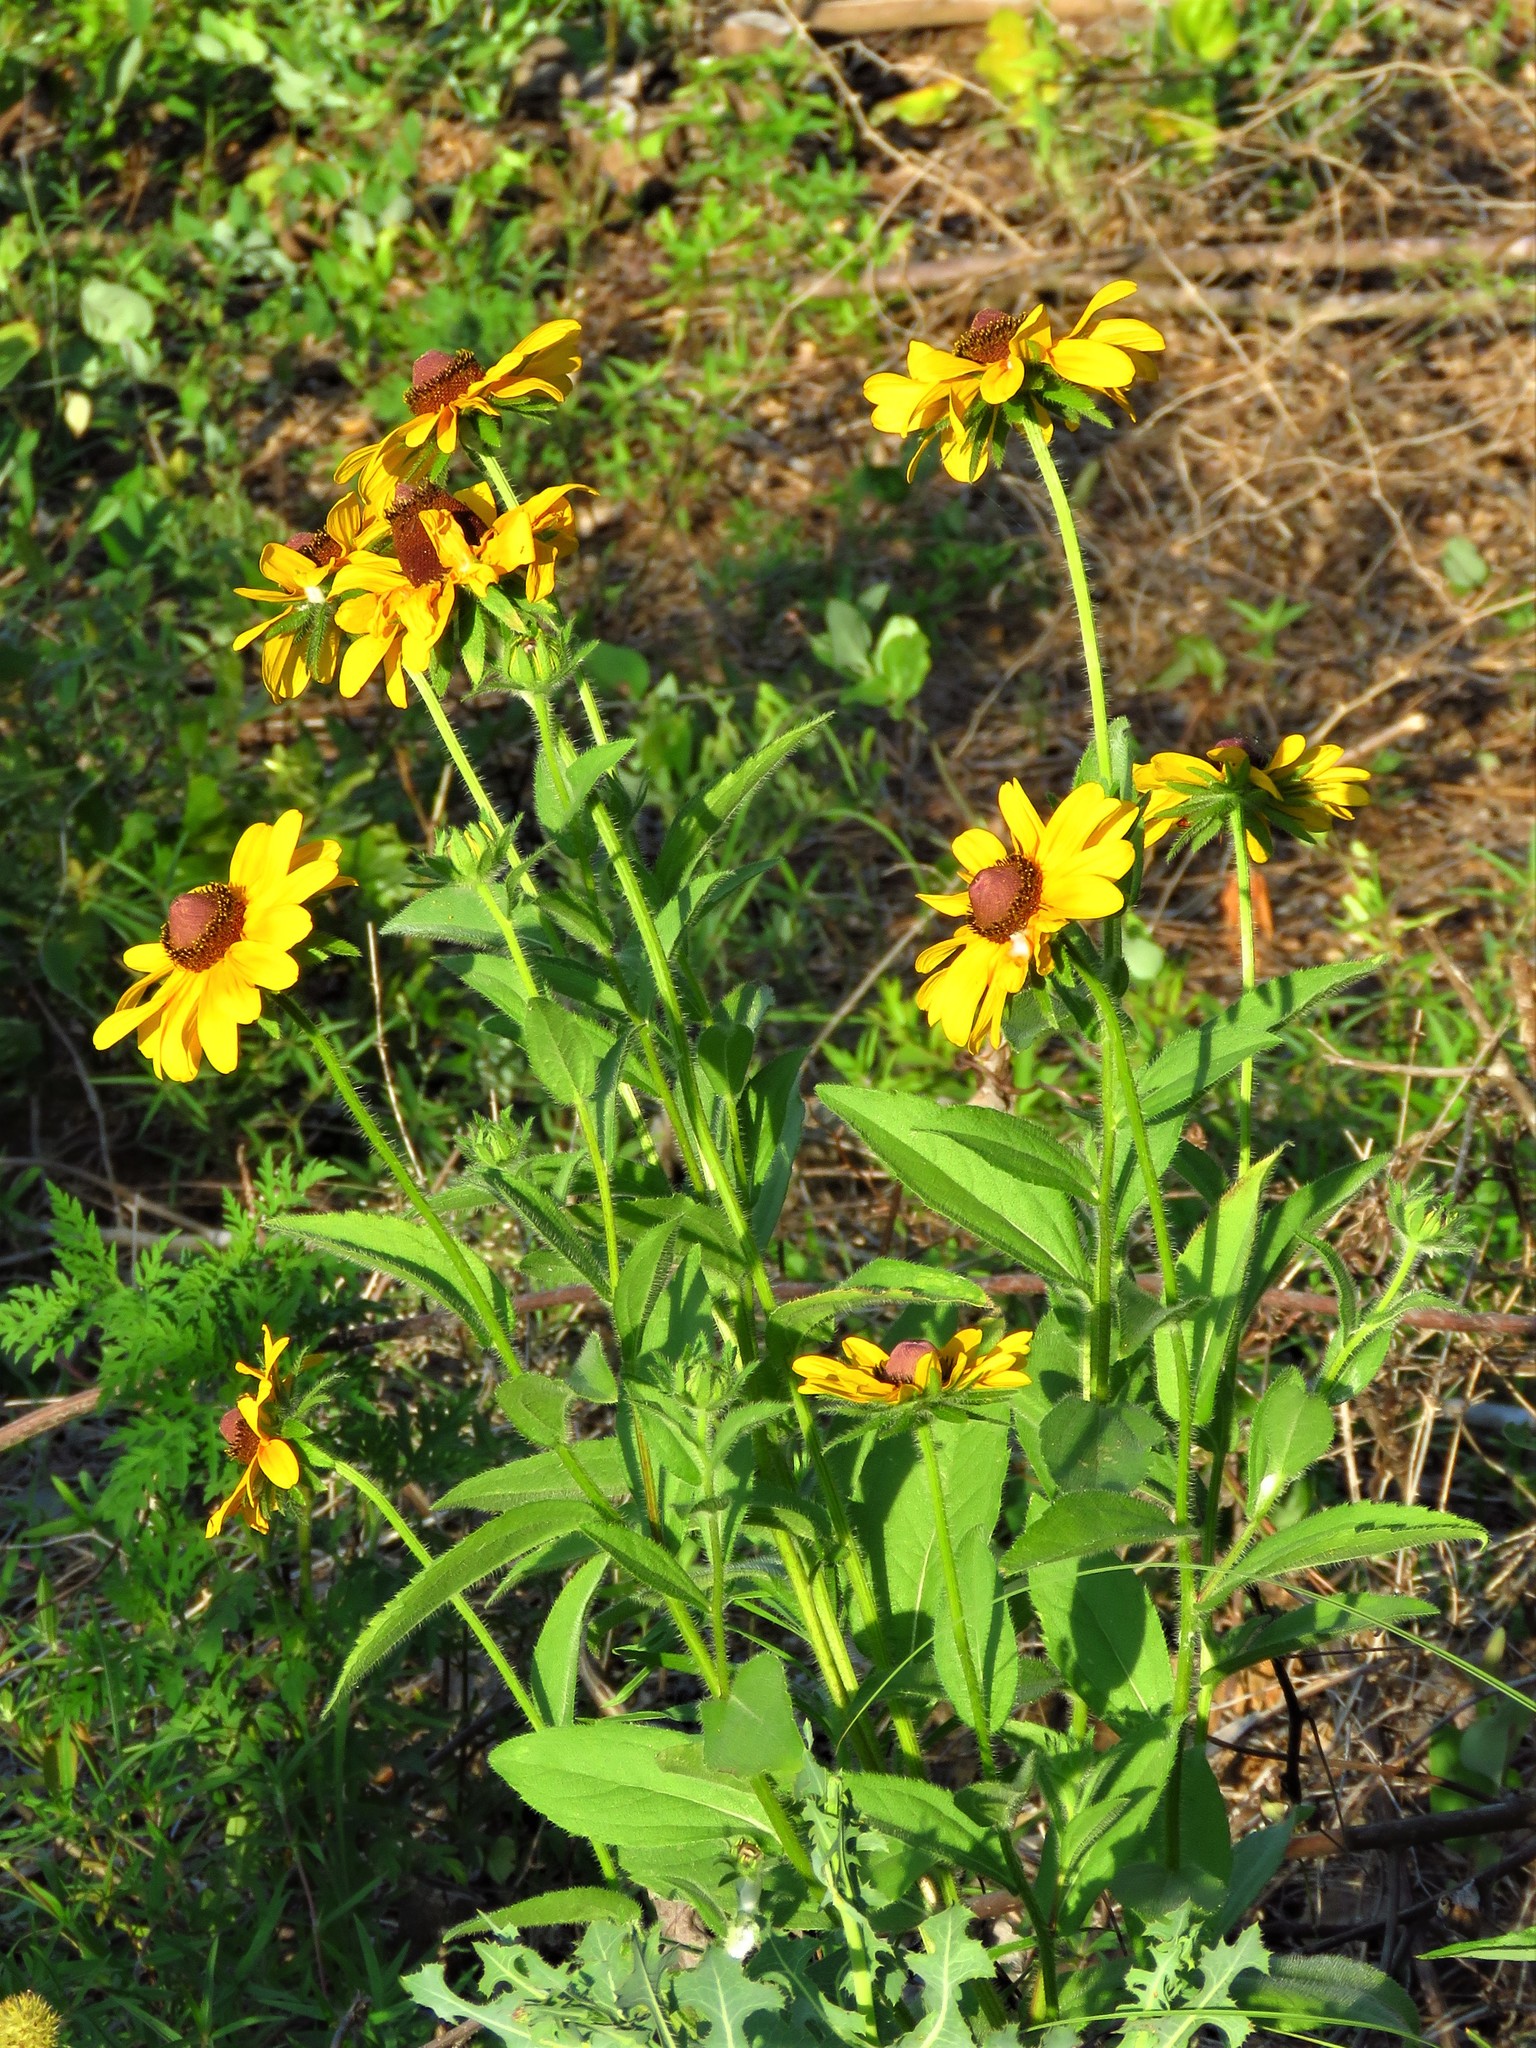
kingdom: Plantae
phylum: Tracheophyta
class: Magnoliopsida
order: Asterales
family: Asteraceae
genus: Rudbeckia
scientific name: Rudbeckia hirta
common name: Black-eyed-susan
